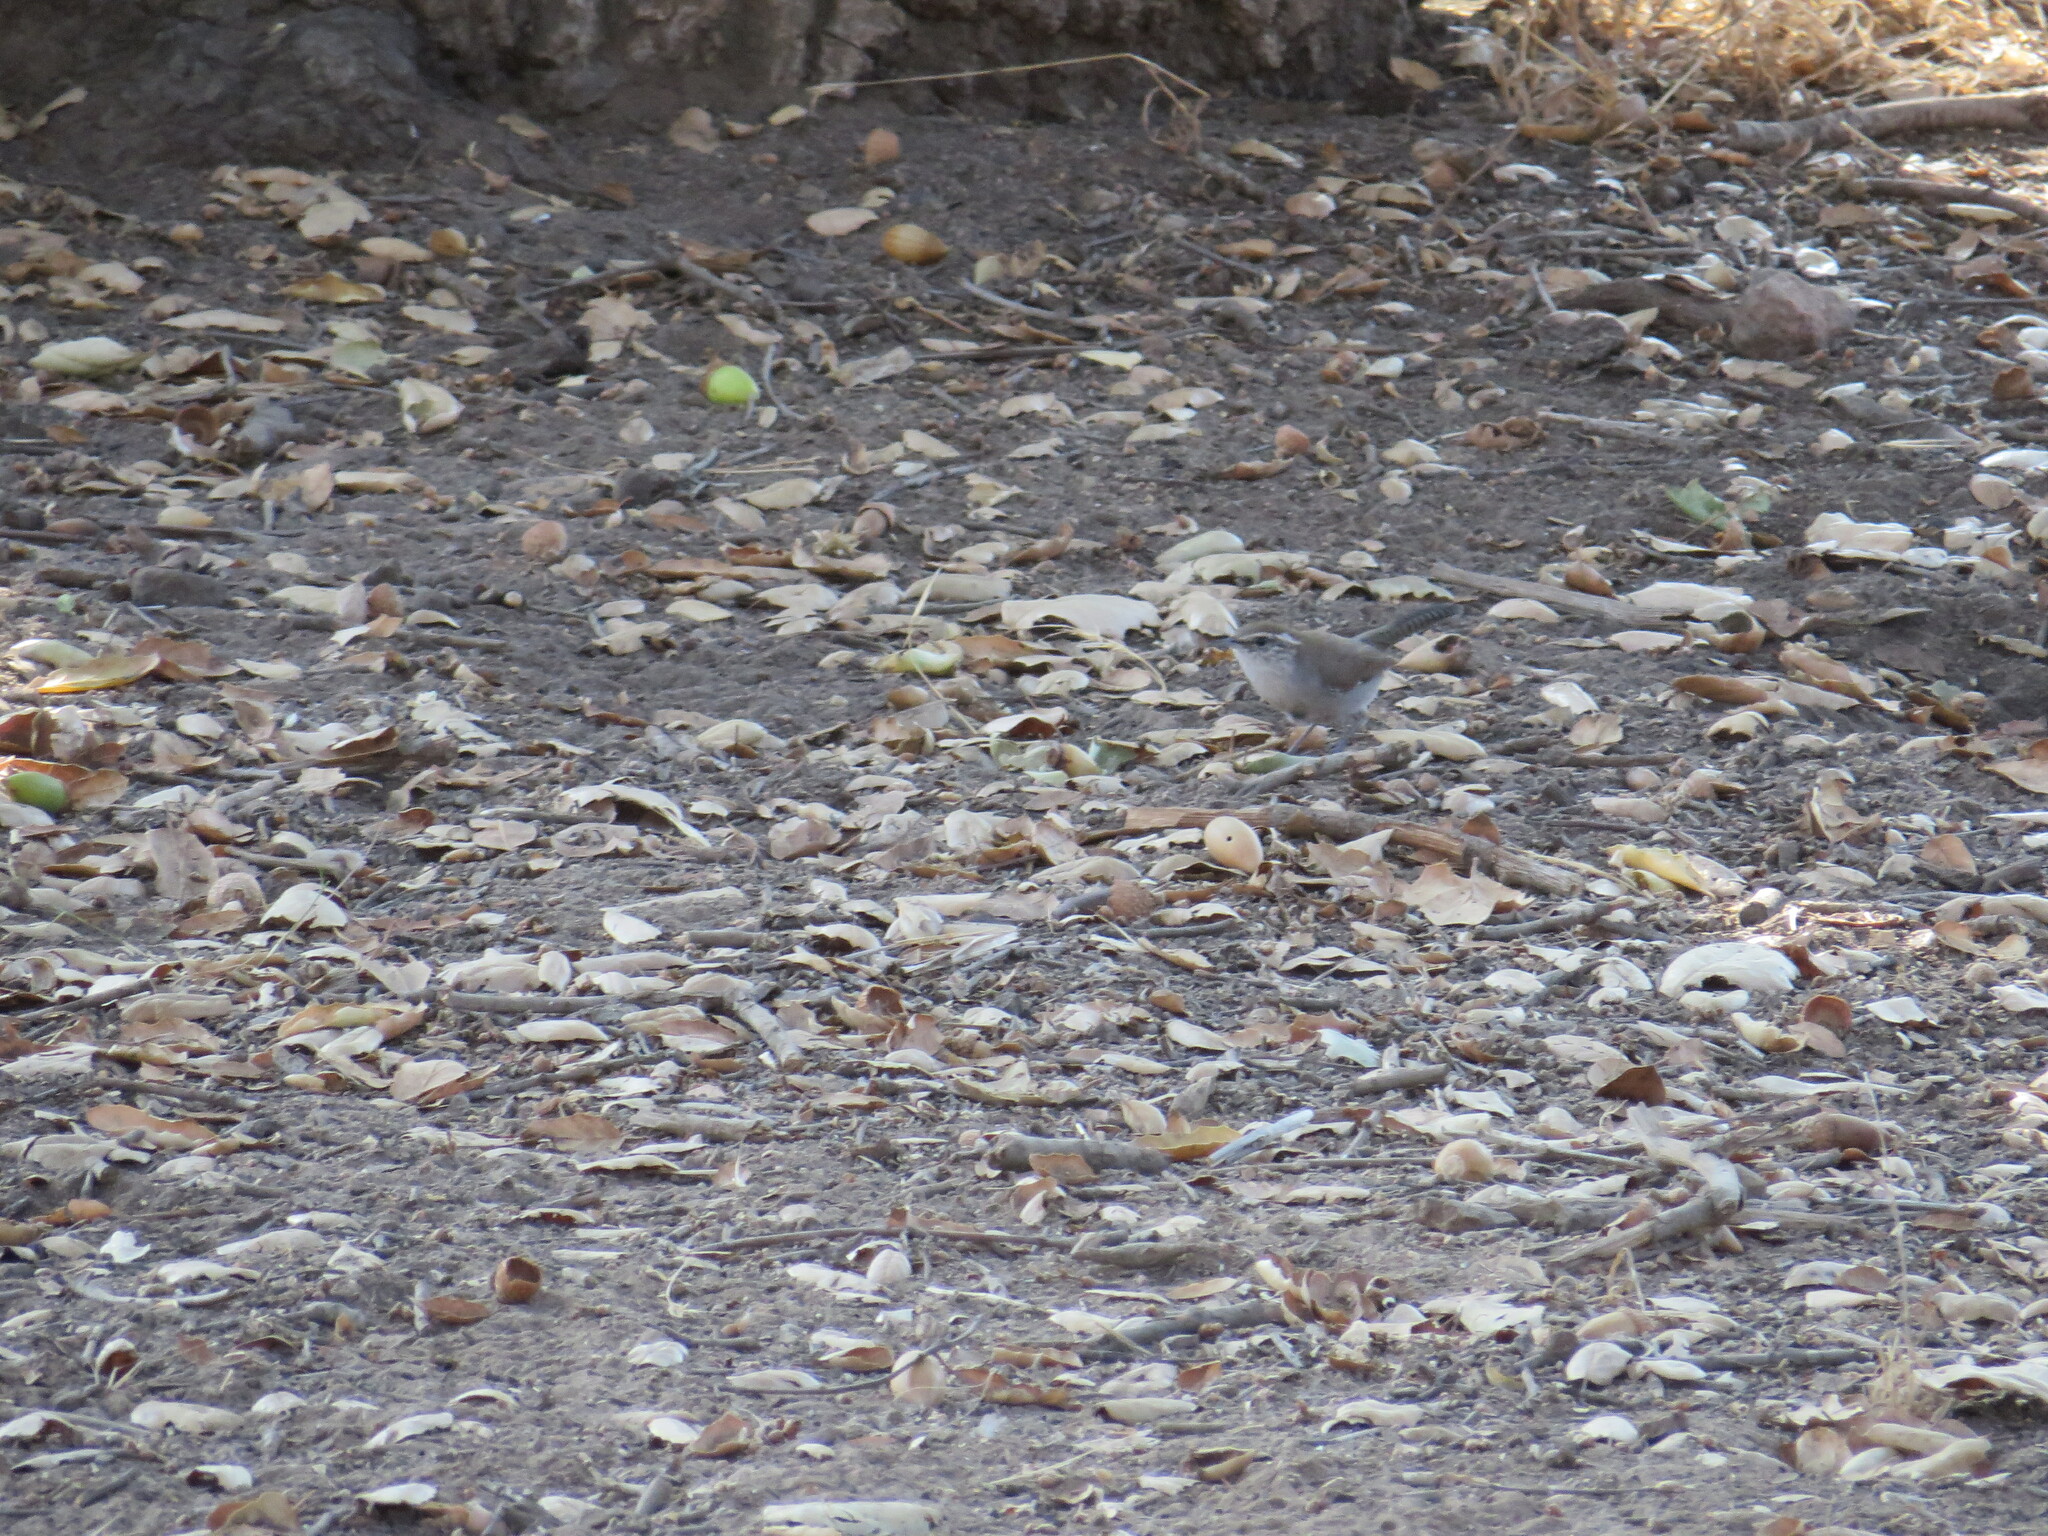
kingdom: Animalia
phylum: Chordata
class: Aves
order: Passeriformes
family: Troglodytidae
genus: Thryomanes
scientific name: Thryomanes bewickii
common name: Bewick's wren
